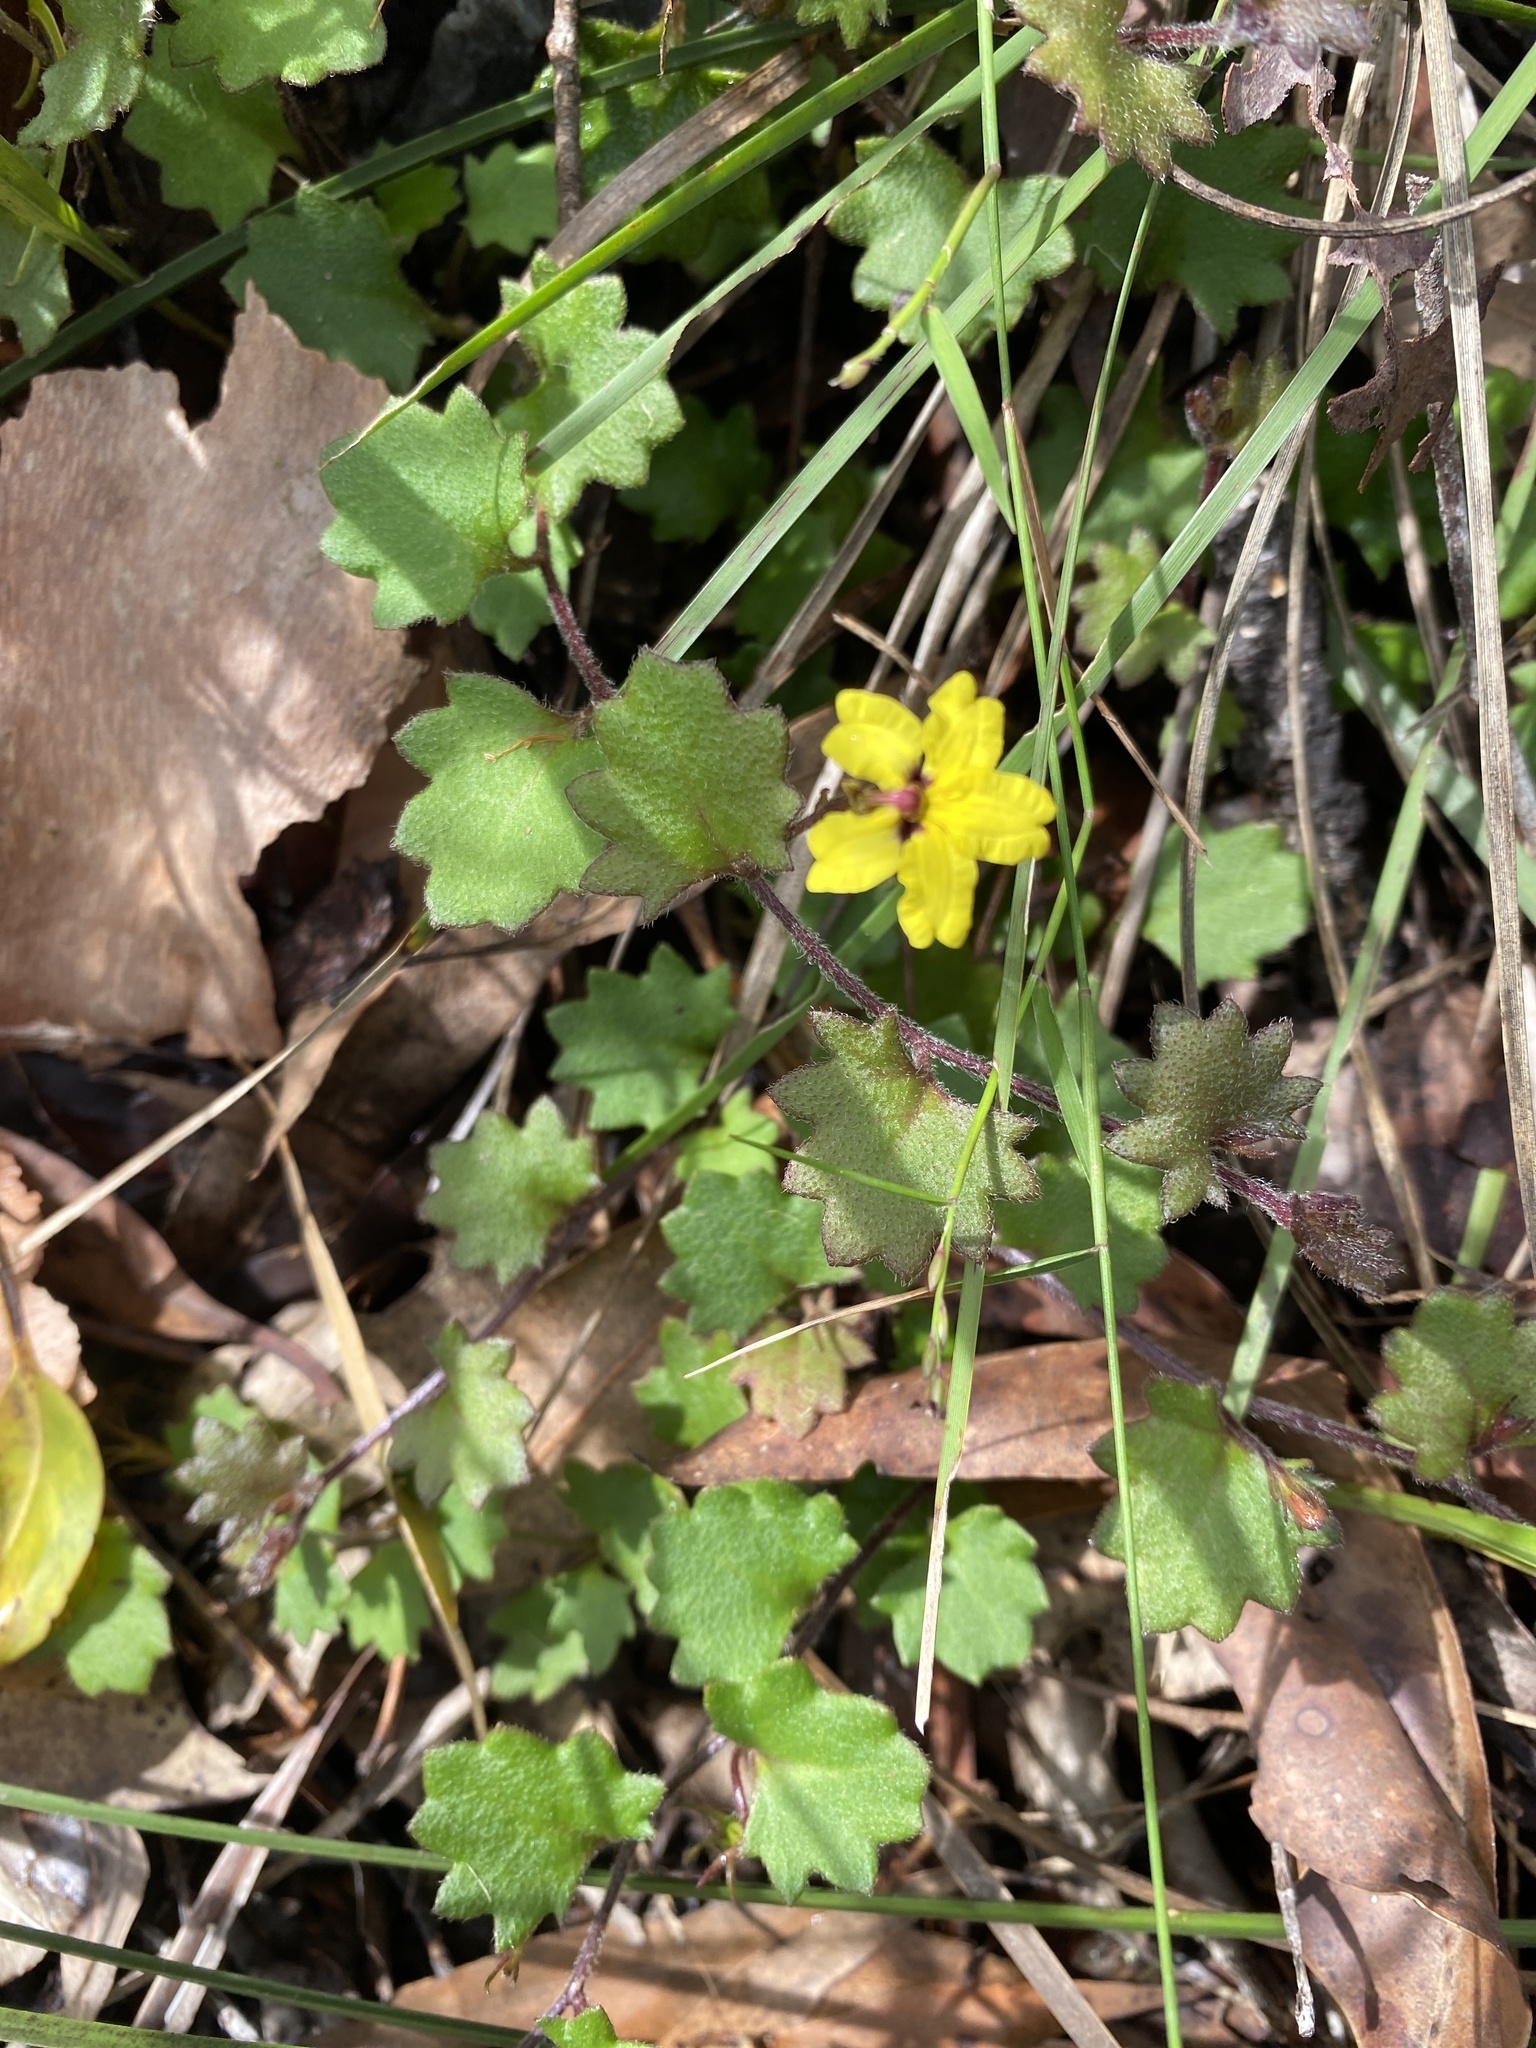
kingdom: Plantae
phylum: Tracheophyta
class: Magnoliopsida
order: Asterales
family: Goodeniaceae
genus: Goodenia
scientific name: Goodenia rotundifolia
